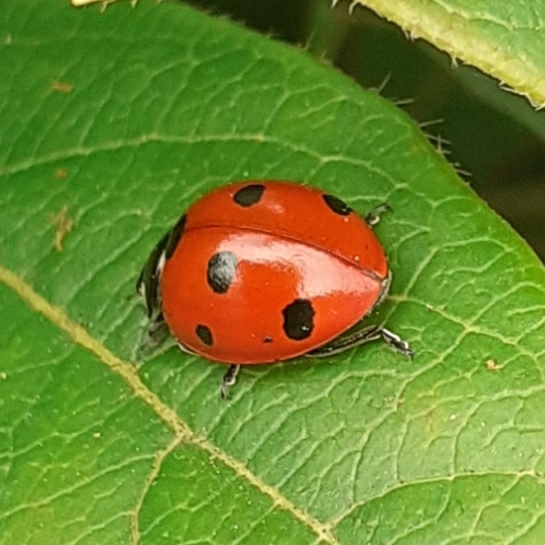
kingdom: Animalia
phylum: Arthropoda
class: Insecta
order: Coleoptera
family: Coccinellidae
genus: Coccinella
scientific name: Coccinella septempunctata
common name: Sevenspotted lady beetle
